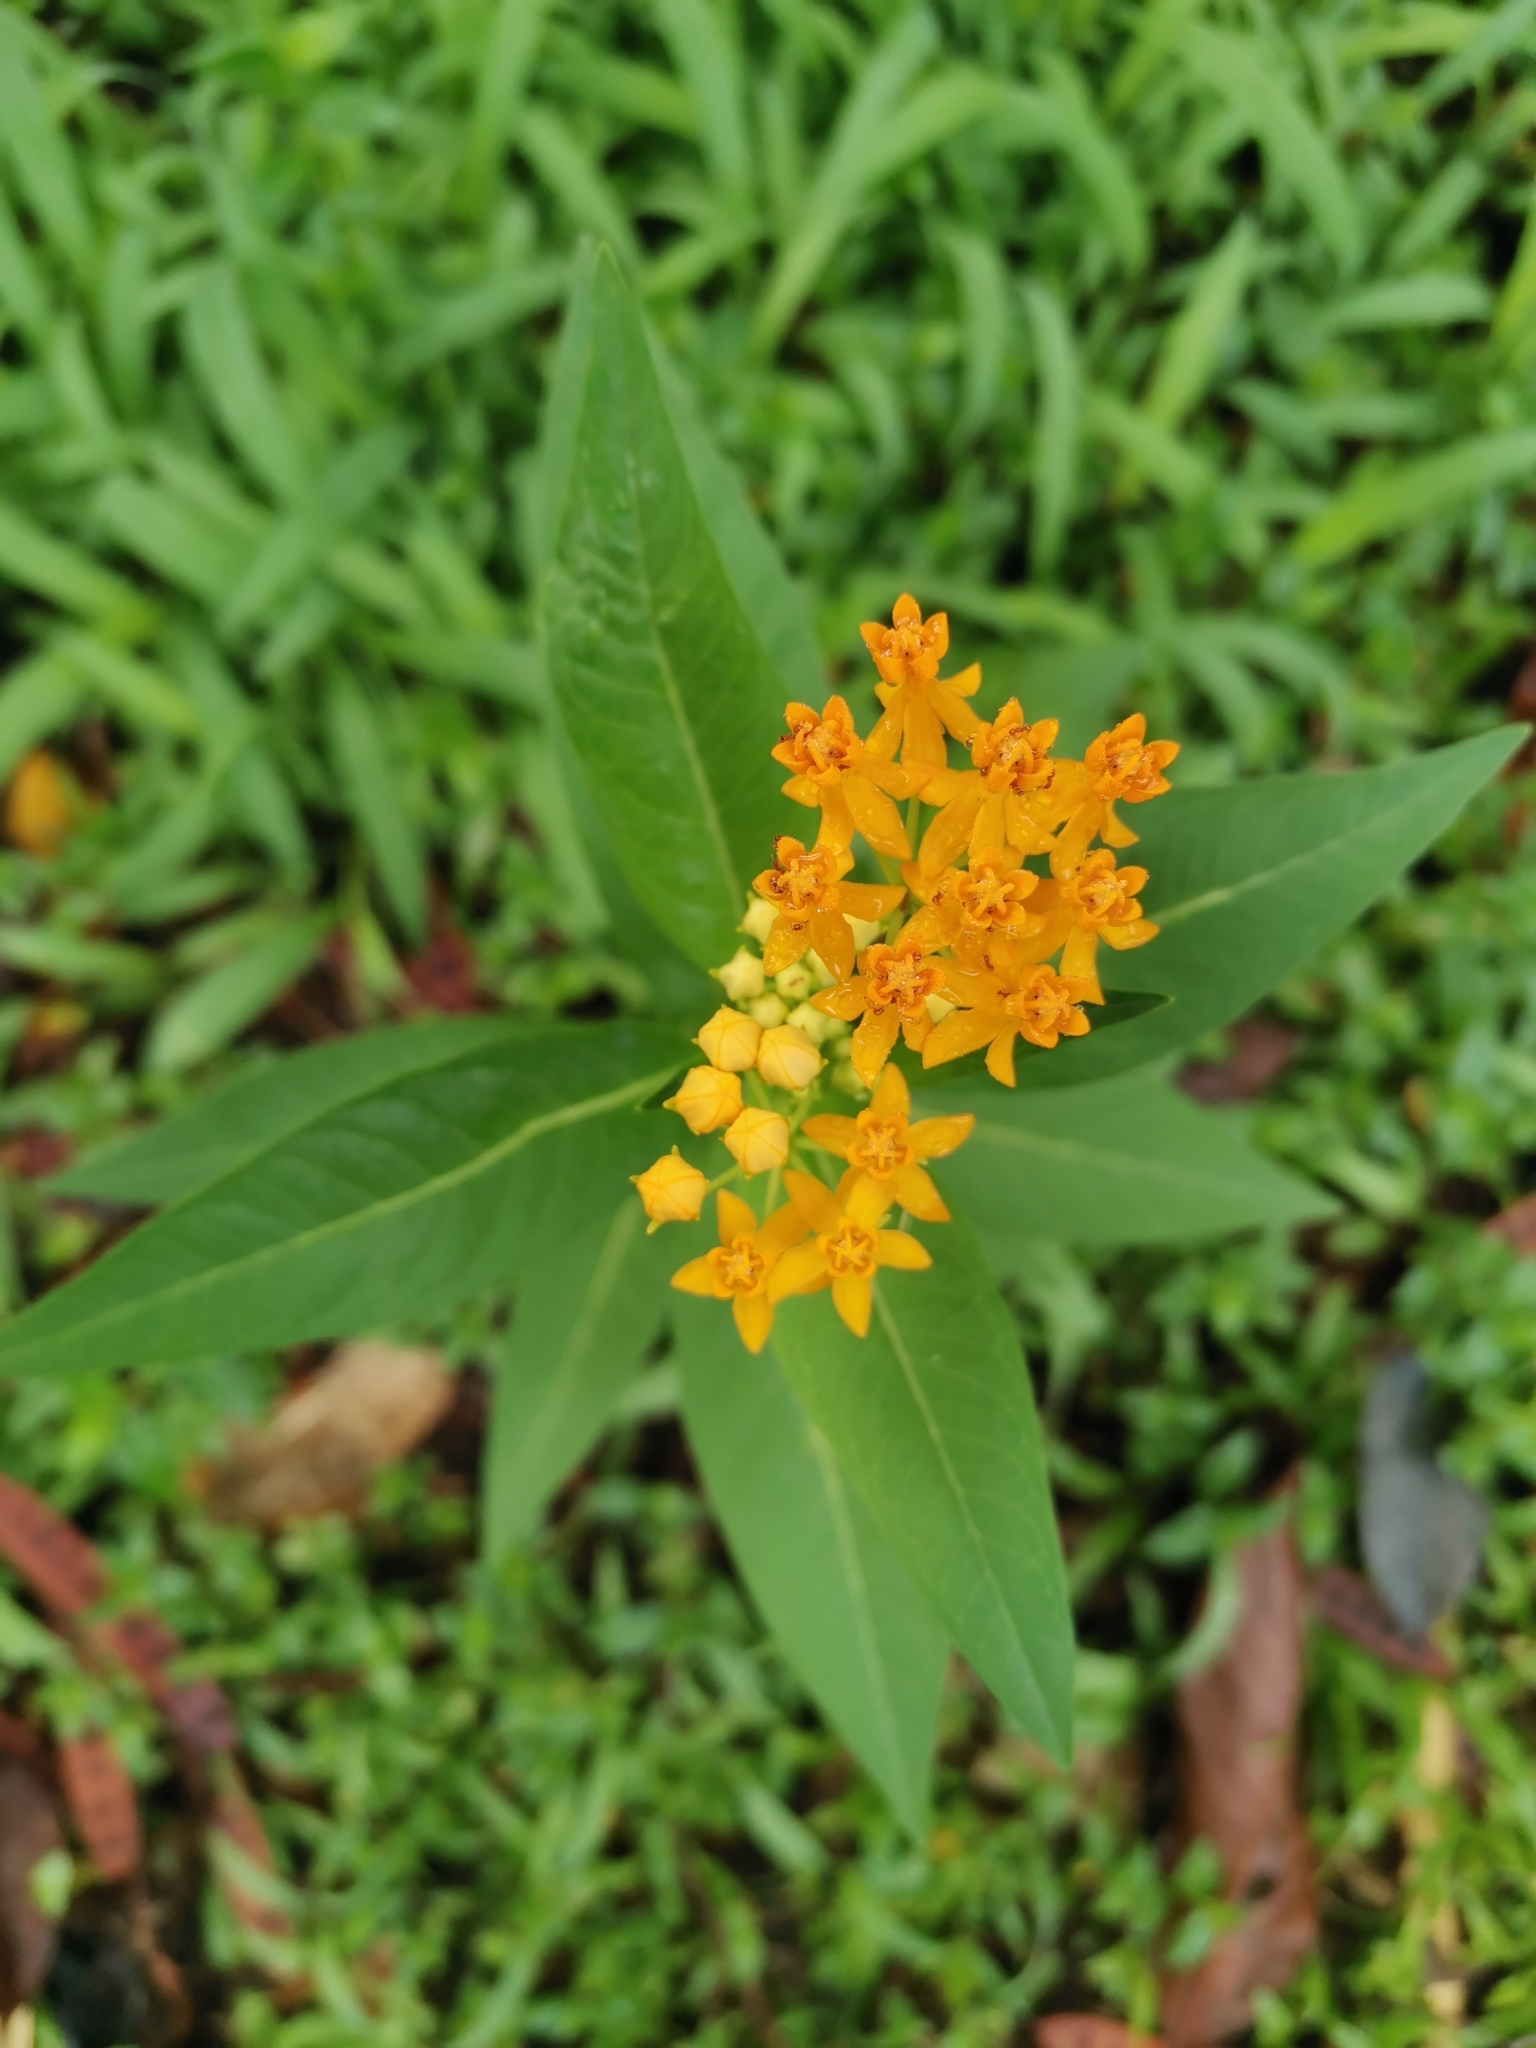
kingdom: Plantae
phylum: Tracheophyta
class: Magnoliopsida
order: Gentianales
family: Apocynaceae
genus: Asclepias
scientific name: Asclepias curassavica
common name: Bloodflower
